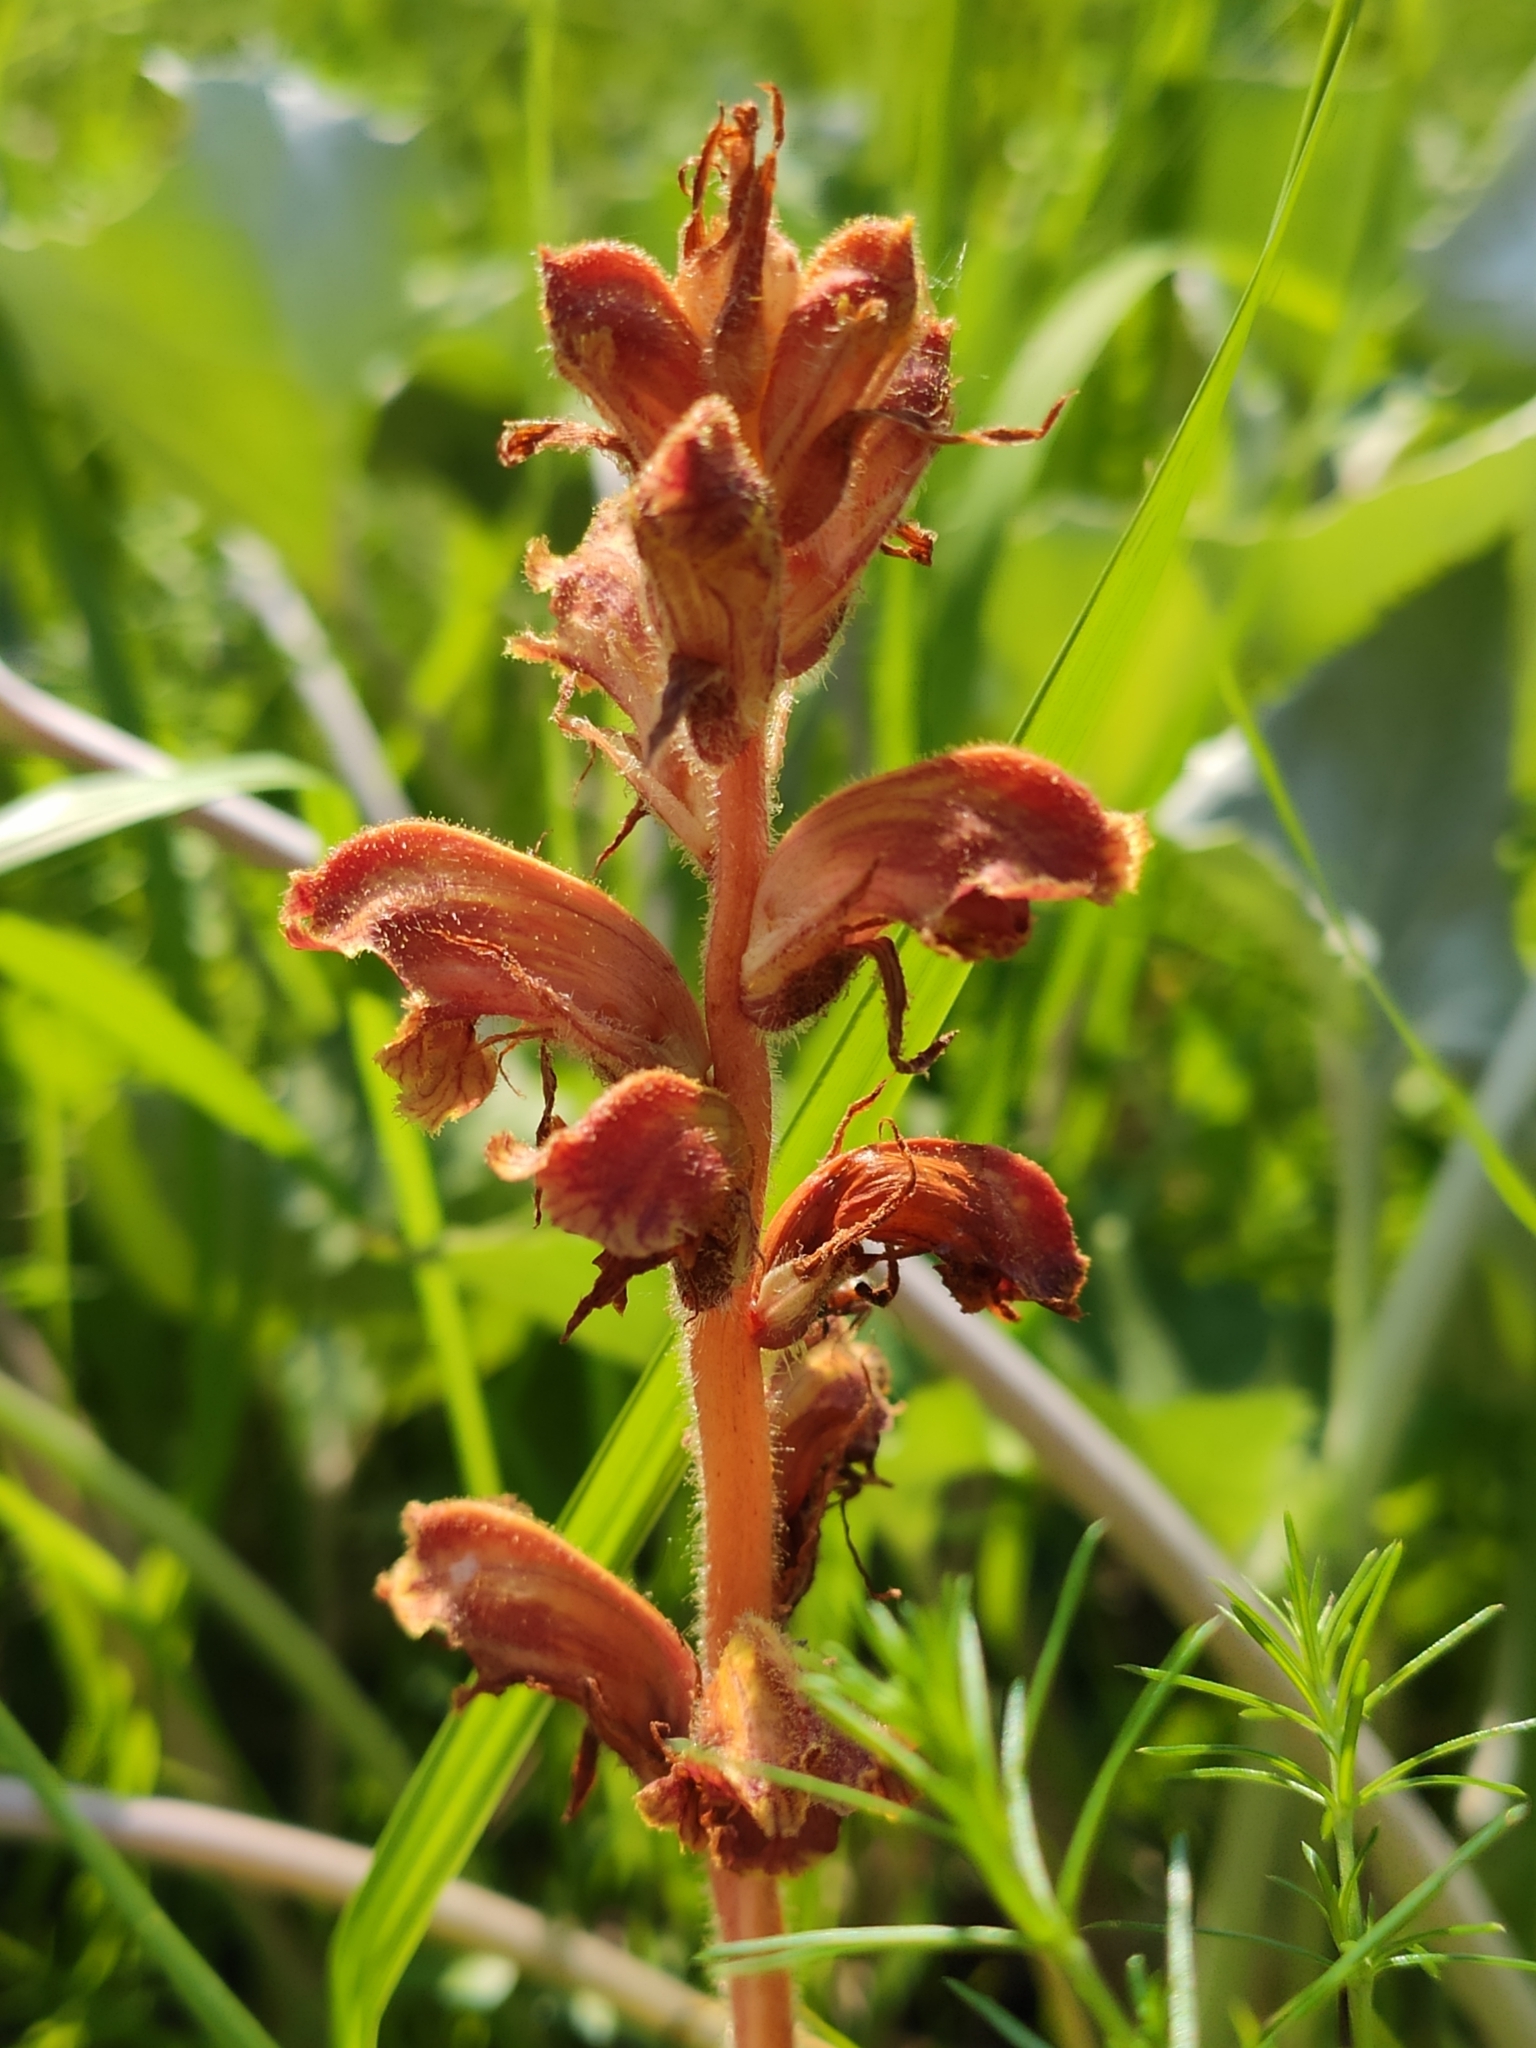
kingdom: Plantae
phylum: Tracheophyta
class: Magnoliopsida
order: Lamiales
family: Orobanchaceae
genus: Orobanche
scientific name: Orobanche gracilis
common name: Slender broomrape
